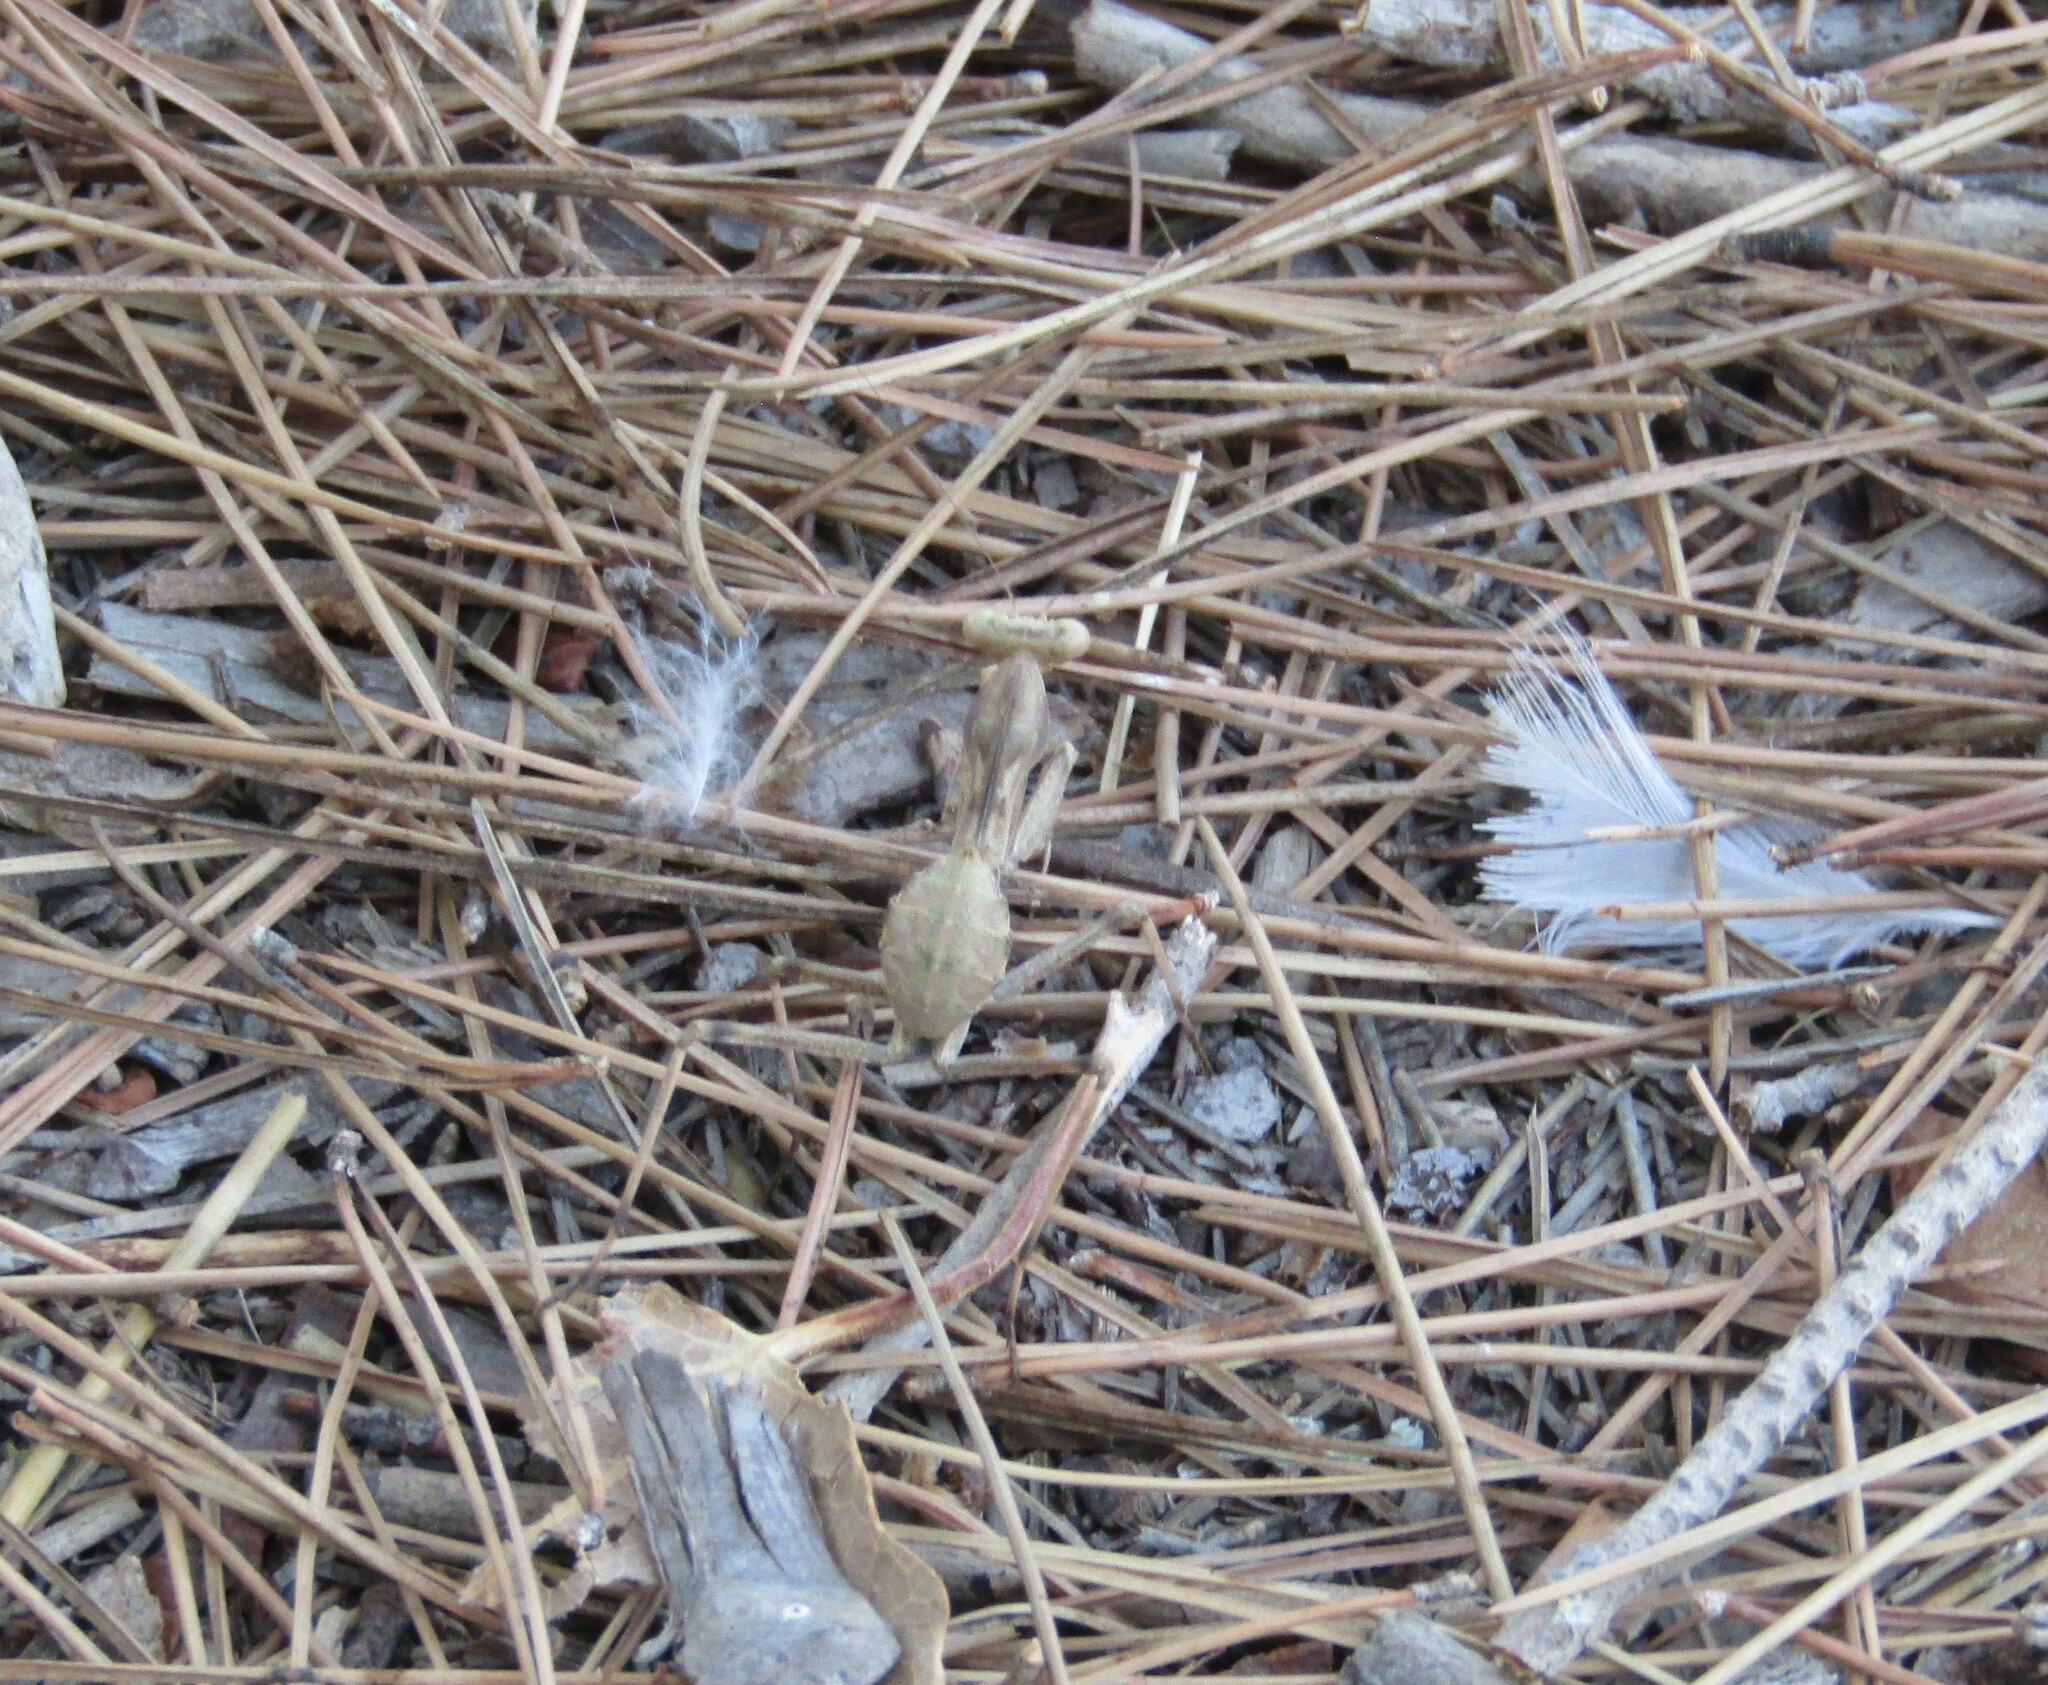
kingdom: Animalia
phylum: Arthropoda
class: Insecta
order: Mantodea
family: Mantidae
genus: Sphodromantis
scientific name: Sphodromantis viridis
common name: Giant african mantis
